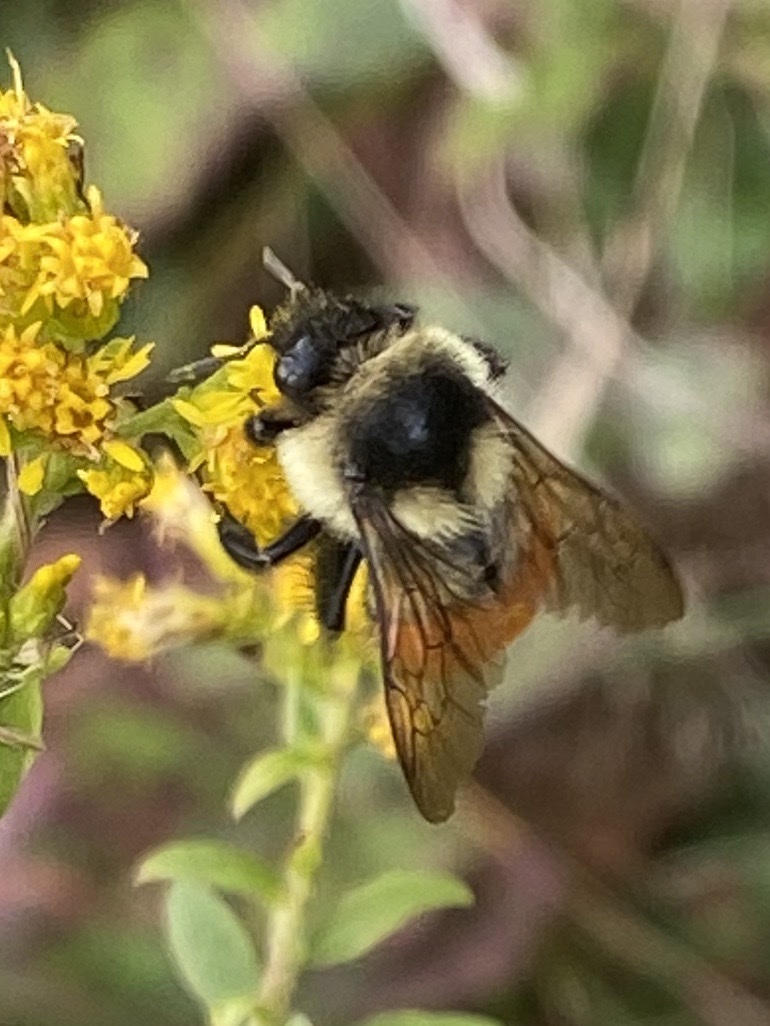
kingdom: Animalia
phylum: Arthropoda
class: Insecta
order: Hymenoptera
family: Apidae
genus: Bombus
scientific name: Bombus ternarius
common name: Tri-colored bumble bee
